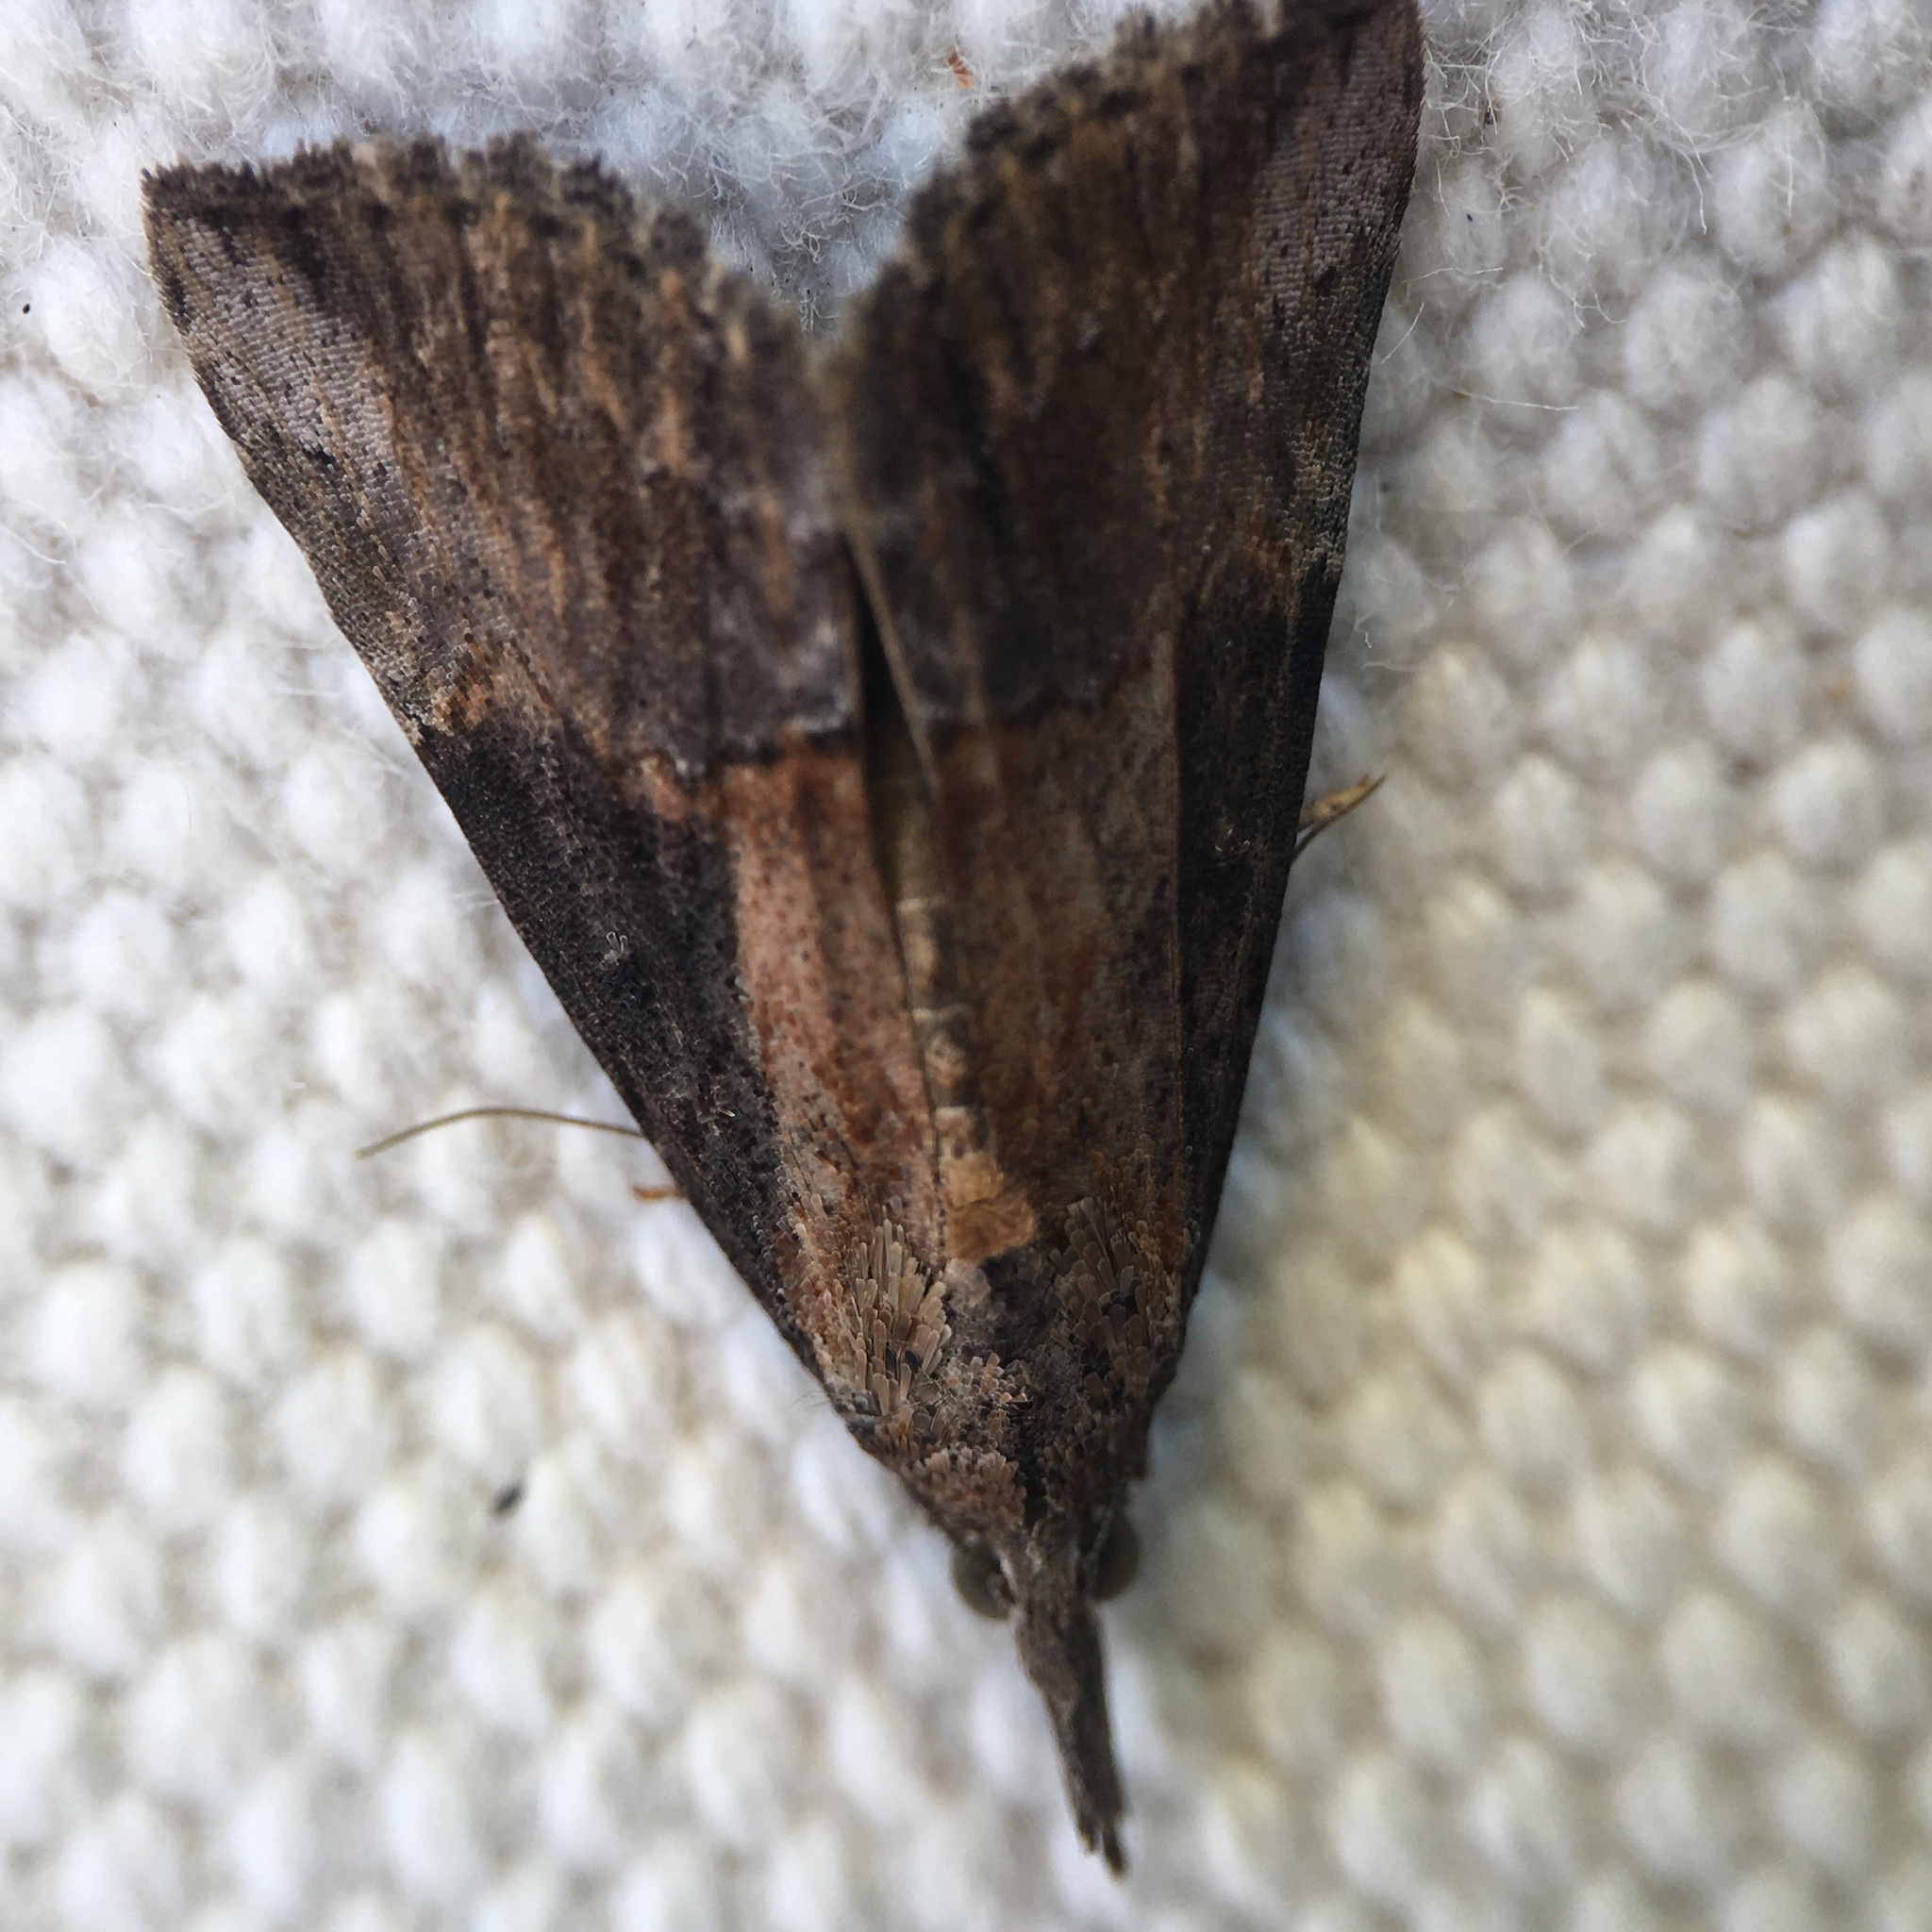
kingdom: Animalia
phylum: Arthropoda
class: Insecta
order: Lepidoptera
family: Erebidae
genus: Hypena
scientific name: Hypena scabra
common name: Green cloverworm
